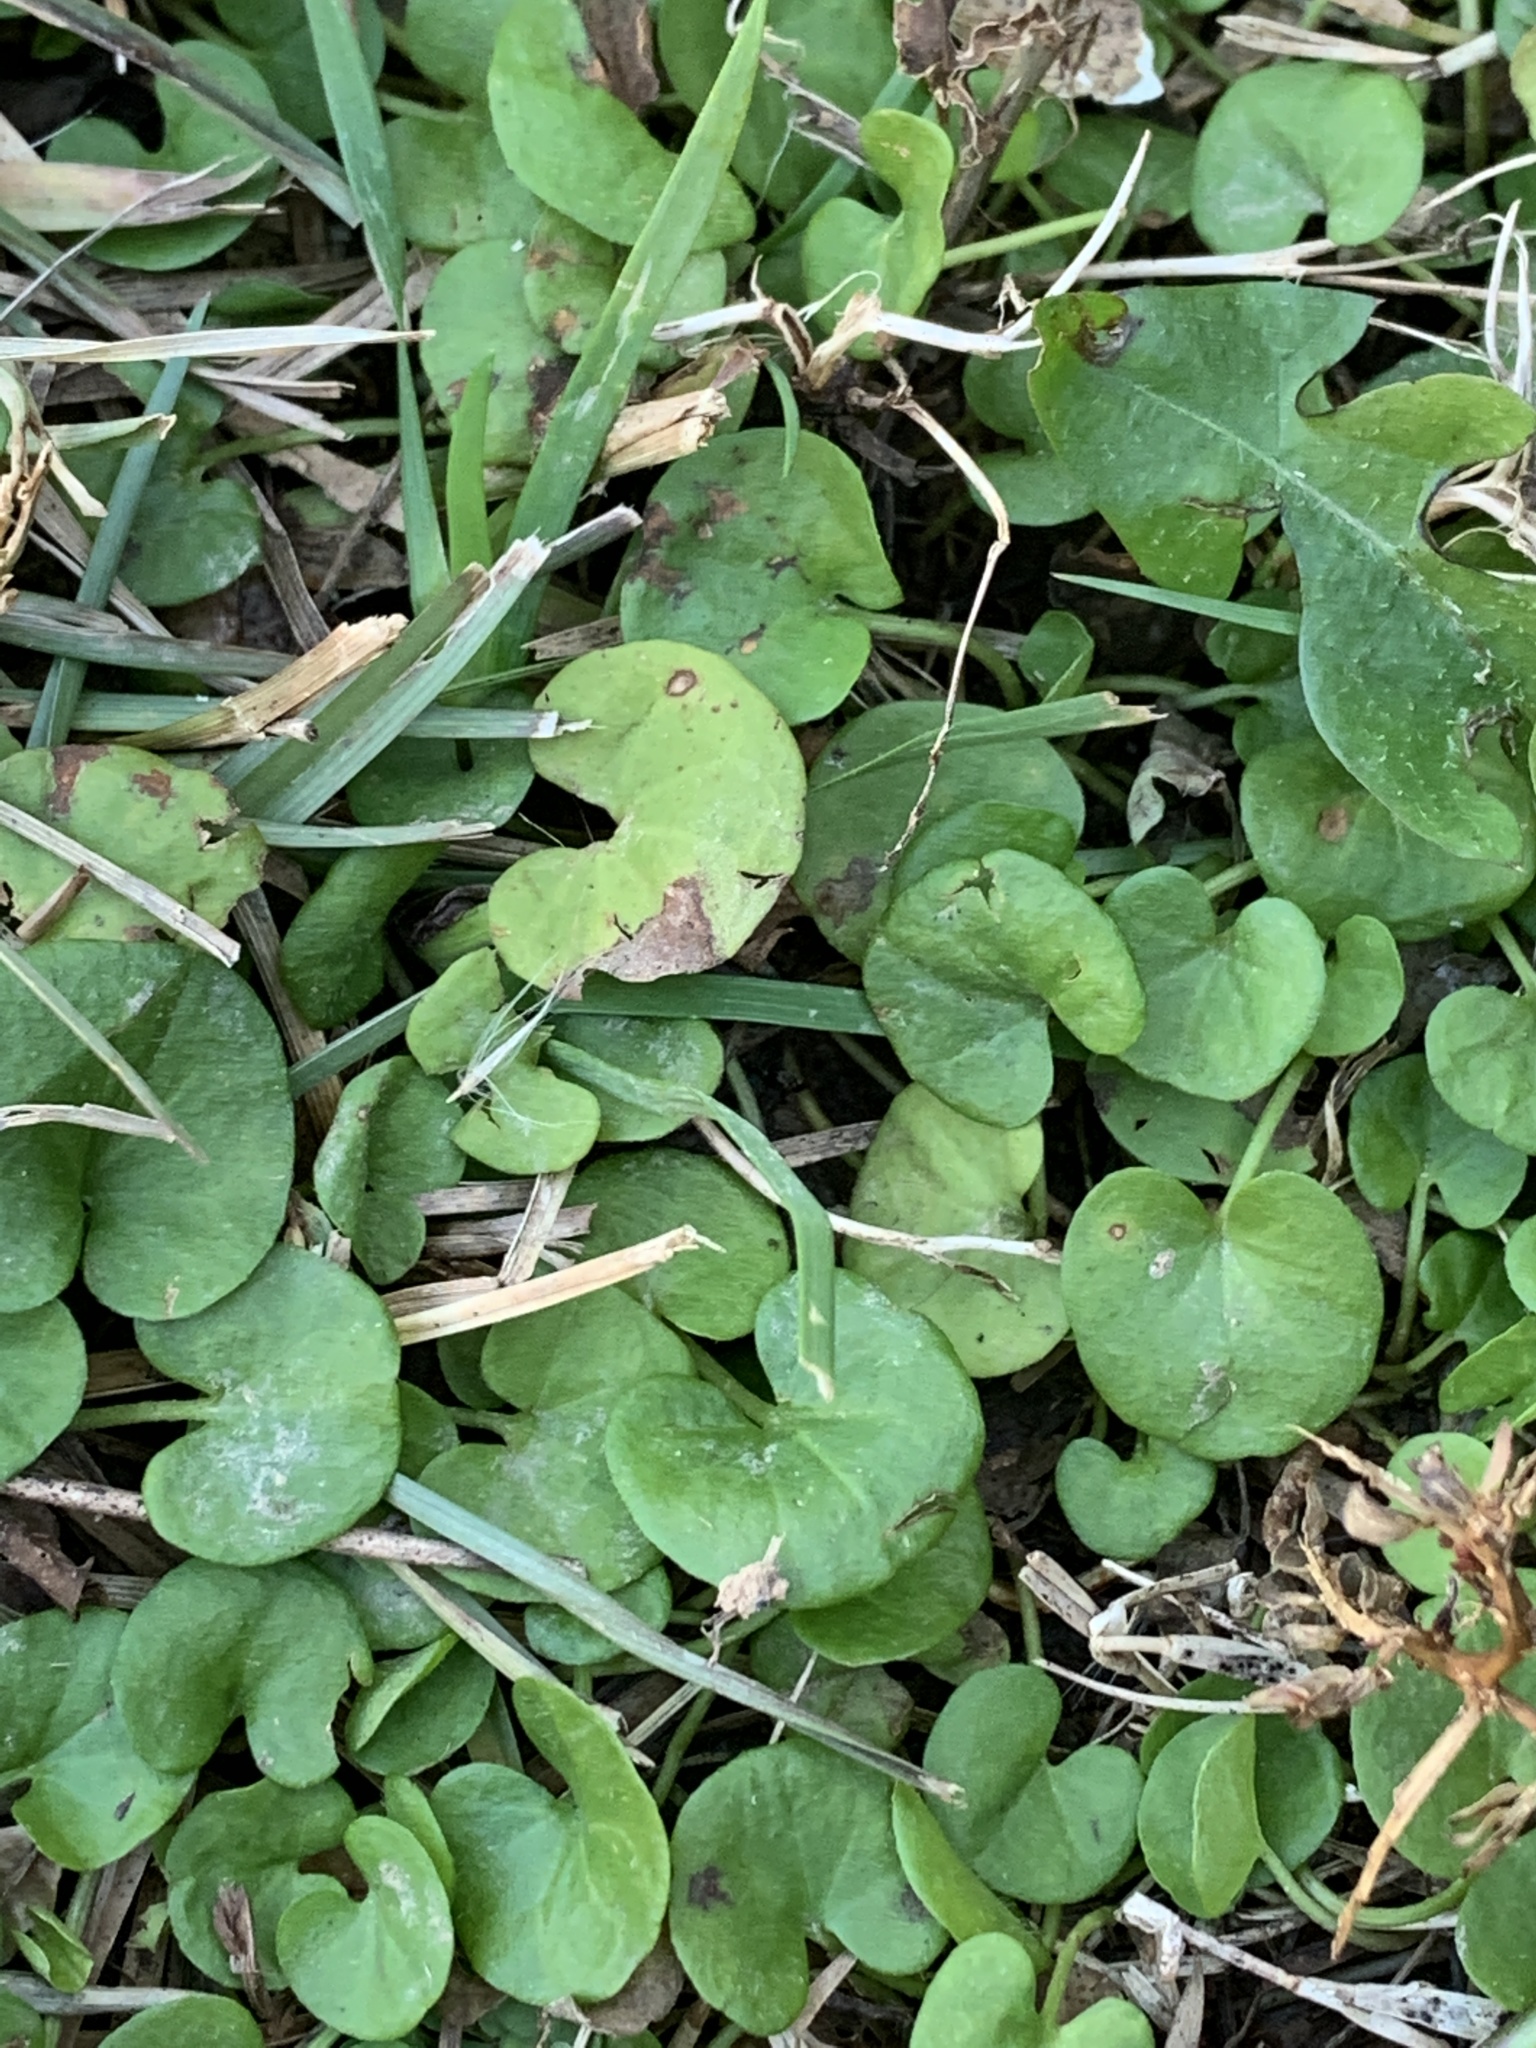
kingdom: Plantae
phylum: Tracheophyta
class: Magnoliopsida
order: Solanales
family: Convolvulaceae
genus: Dichondra
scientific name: Dichondra carolinensis
